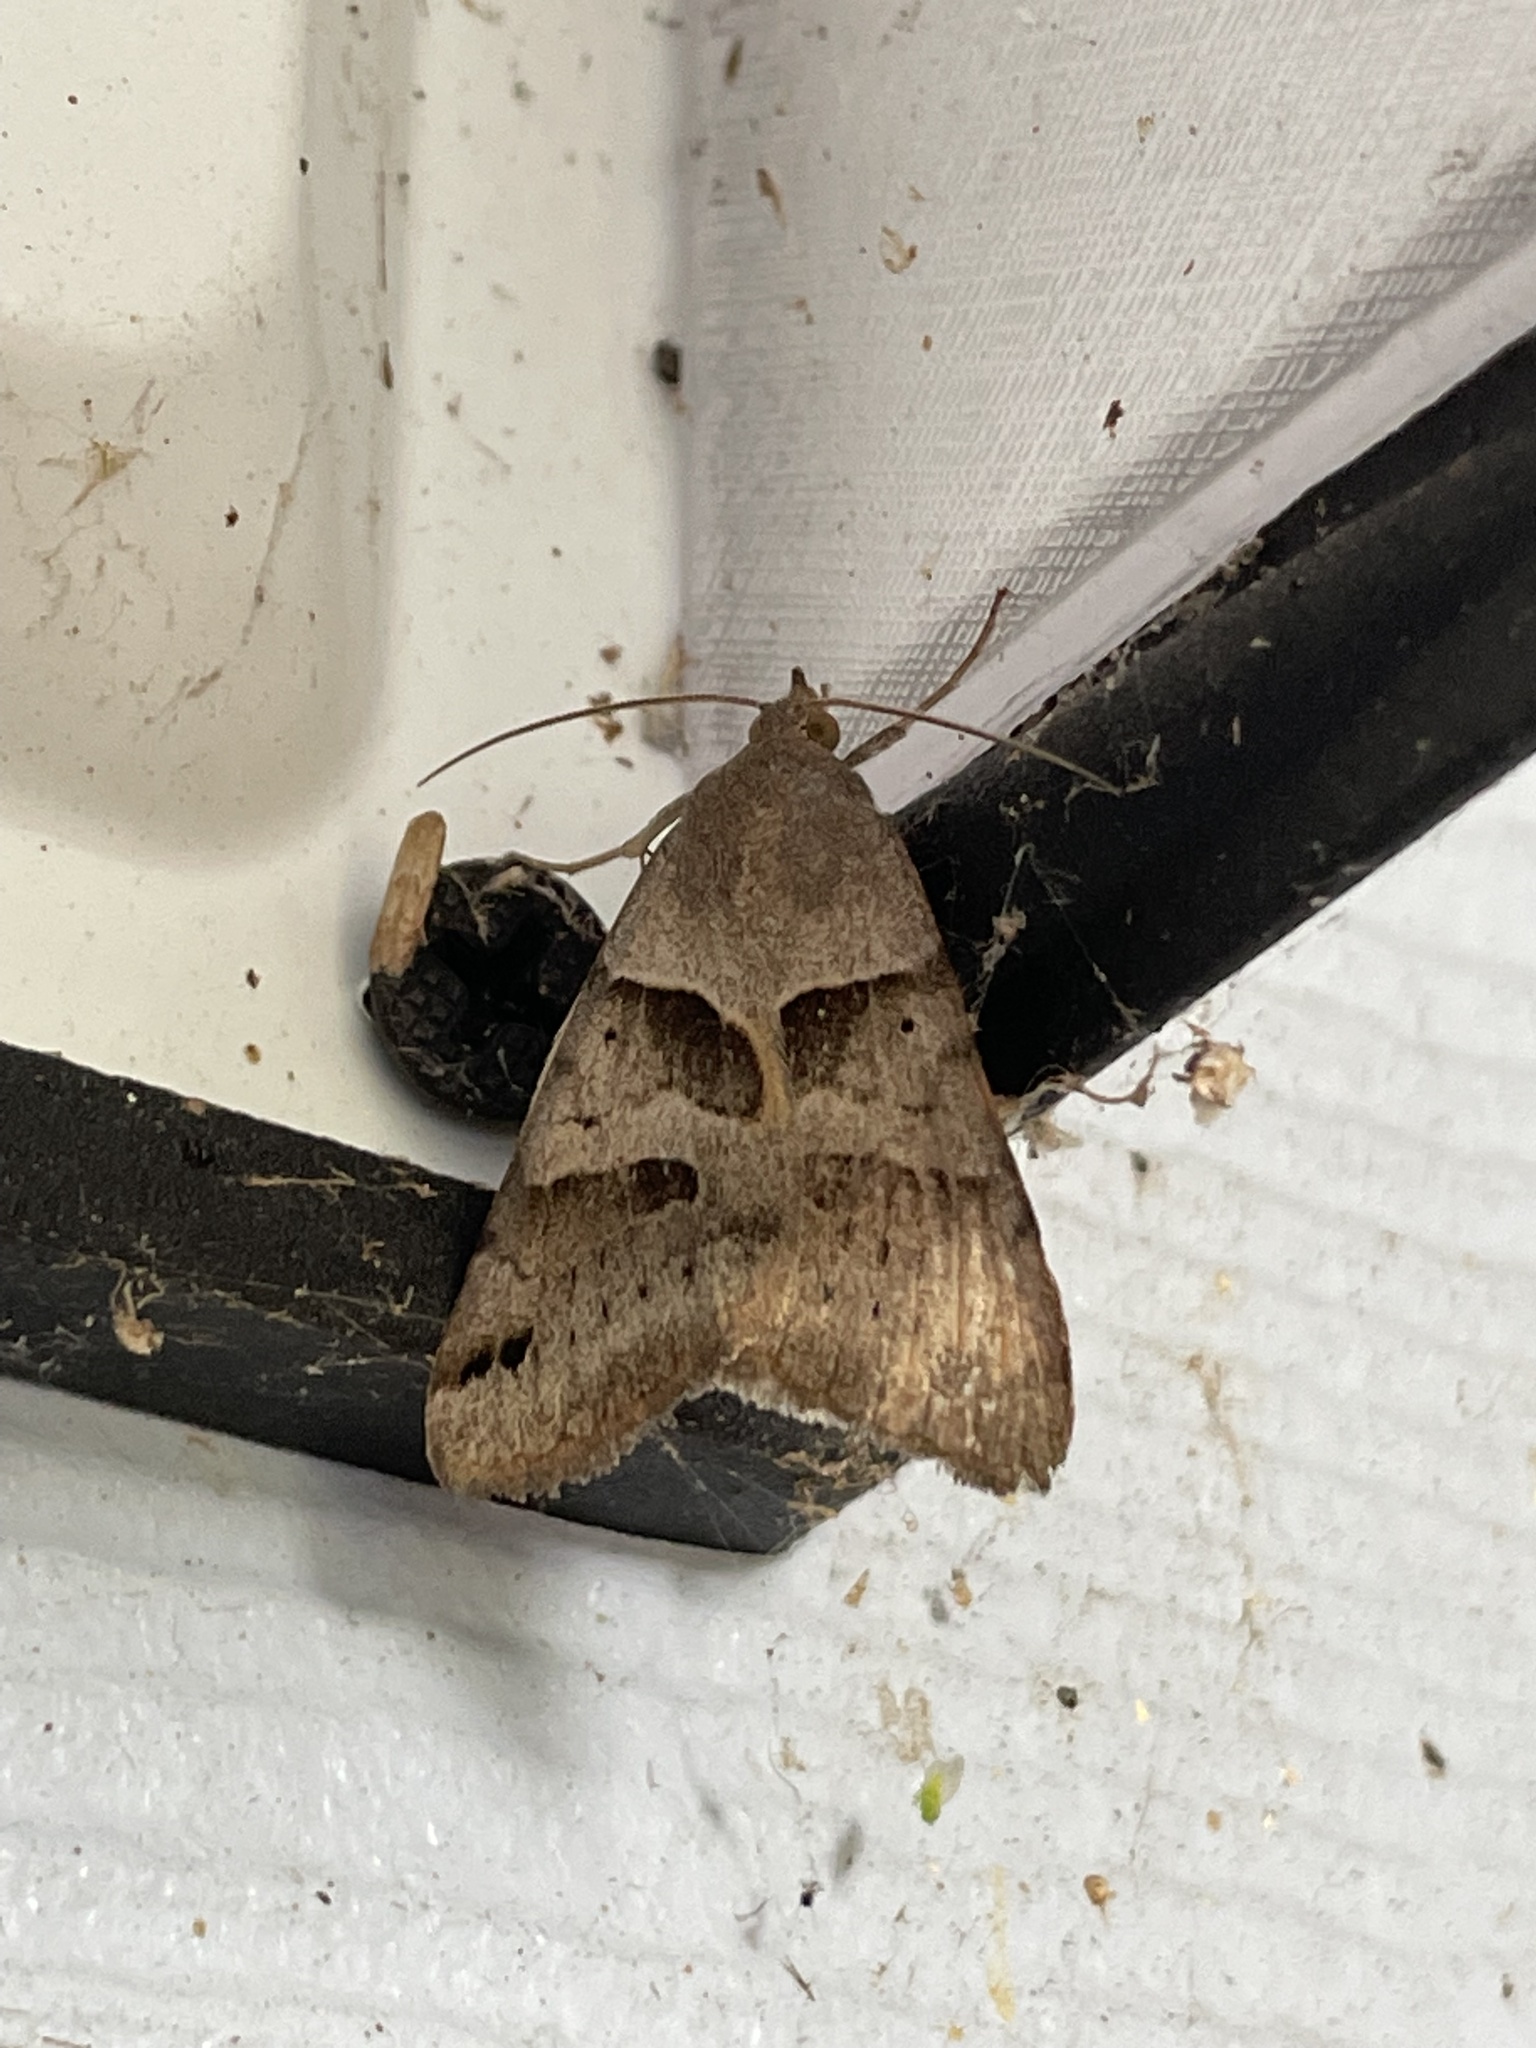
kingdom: Animalia
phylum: Arthropoda
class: Insecta
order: Lepidoptera
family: Erebidae
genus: Caenurgina
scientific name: Caenurgina erechtea
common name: Forage looper moth
